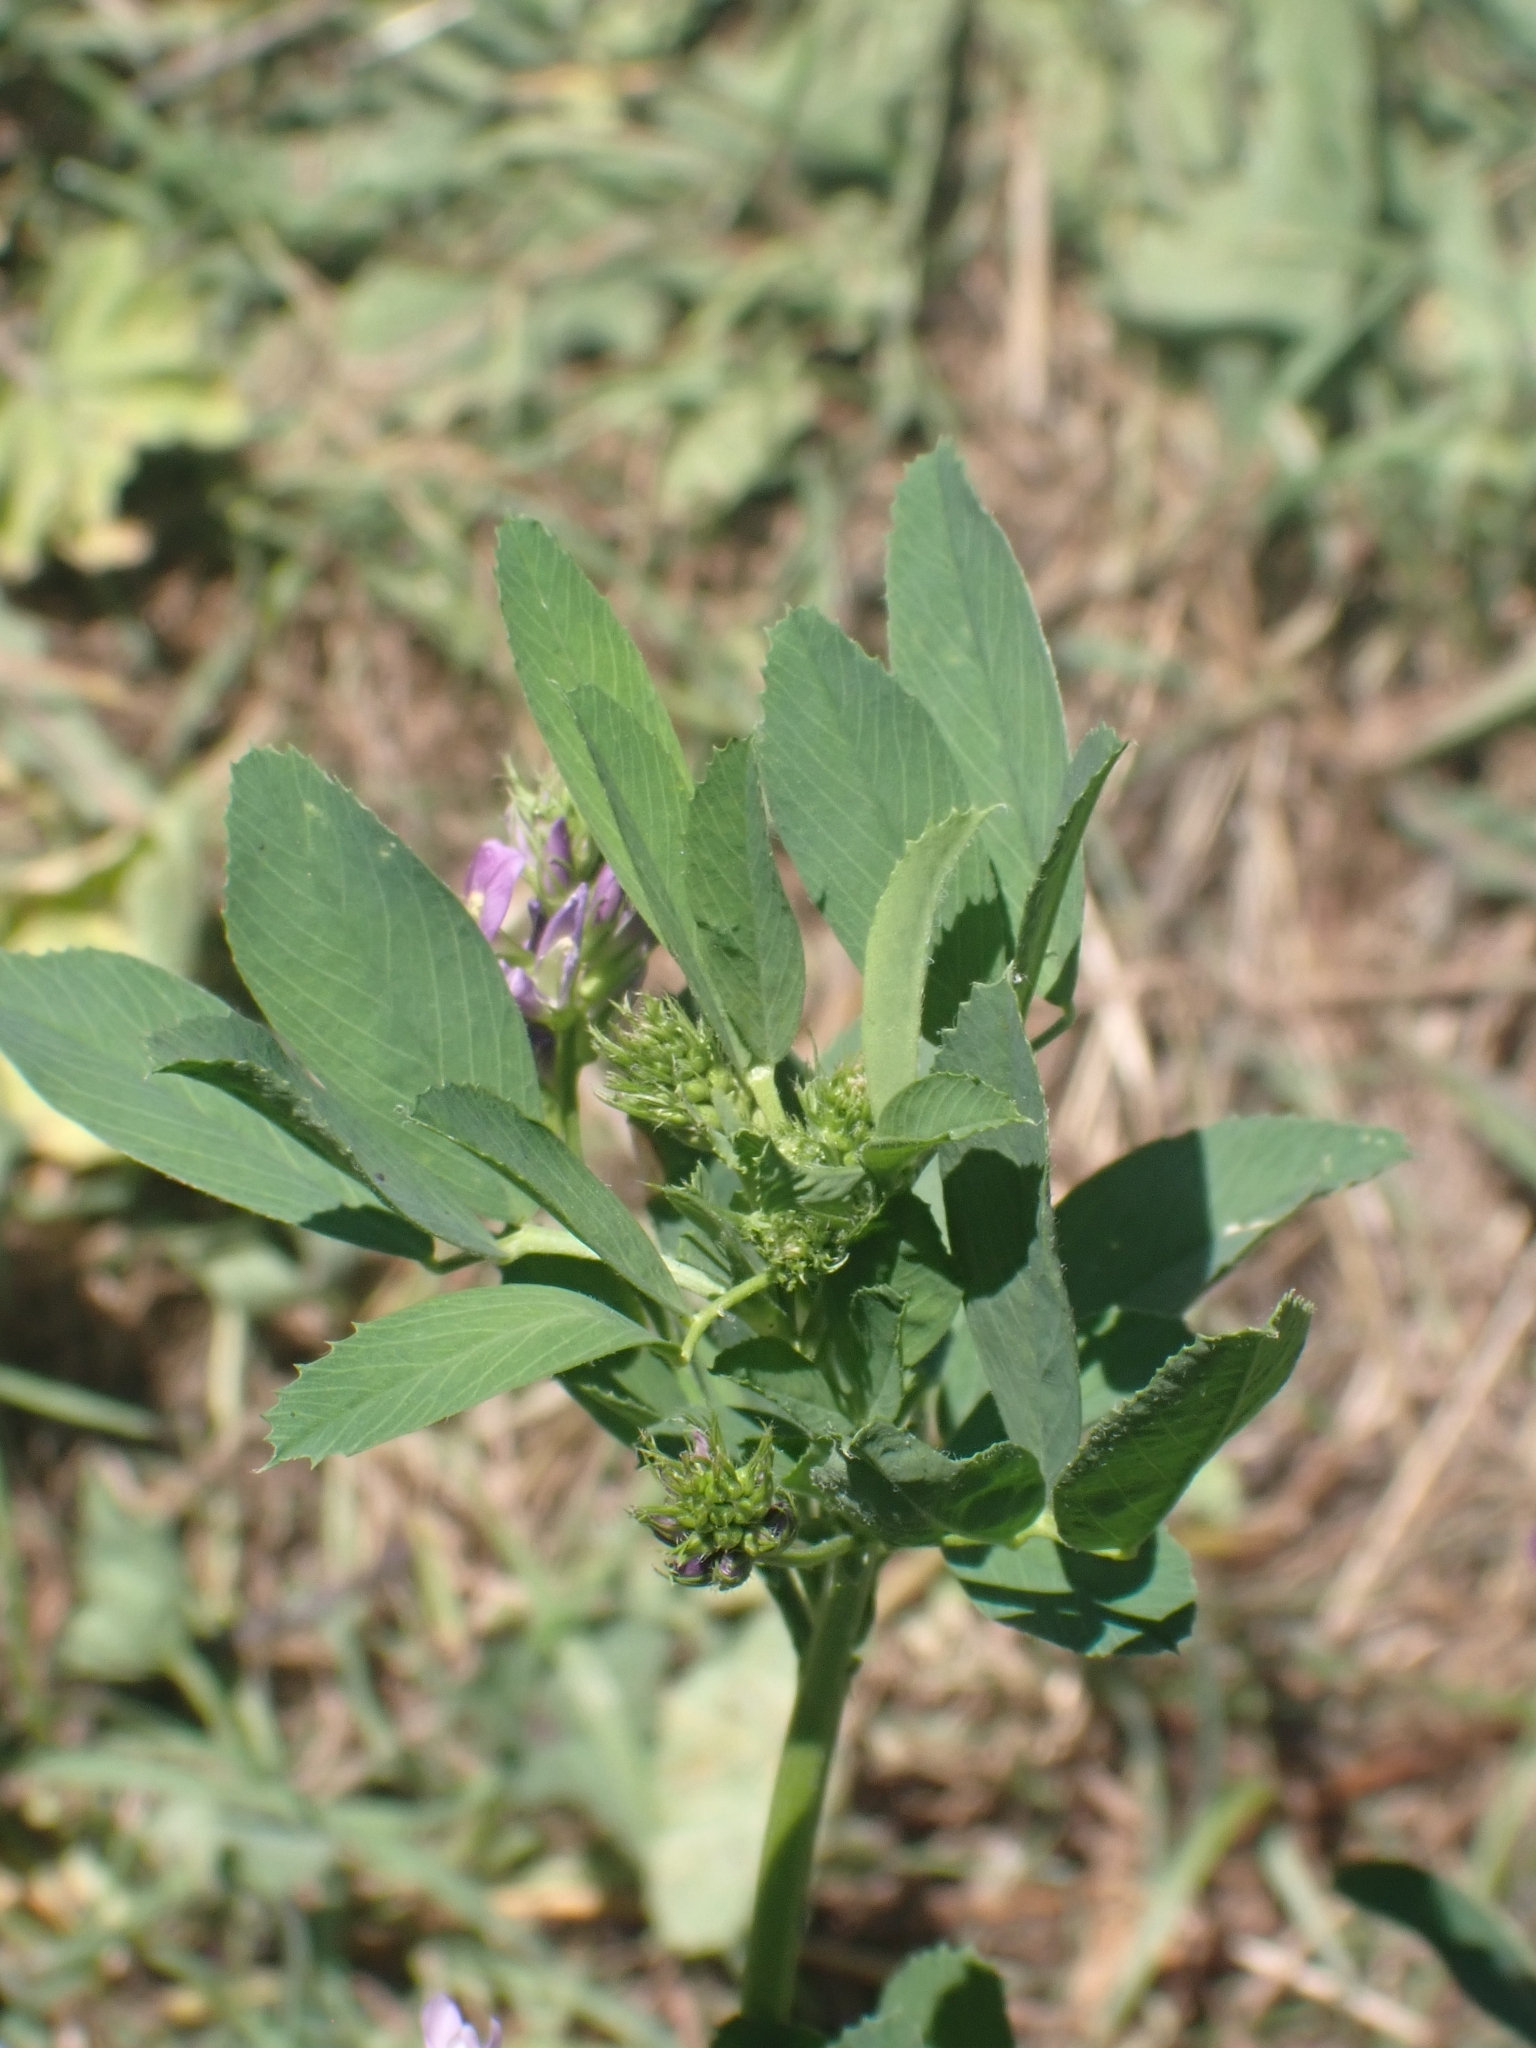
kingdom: Plantae
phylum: Tracheophyta
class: Magnoliopsida
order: Fabales
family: Fabaceae
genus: Medicago
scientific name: Medicago sativa
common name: Alfalfa
